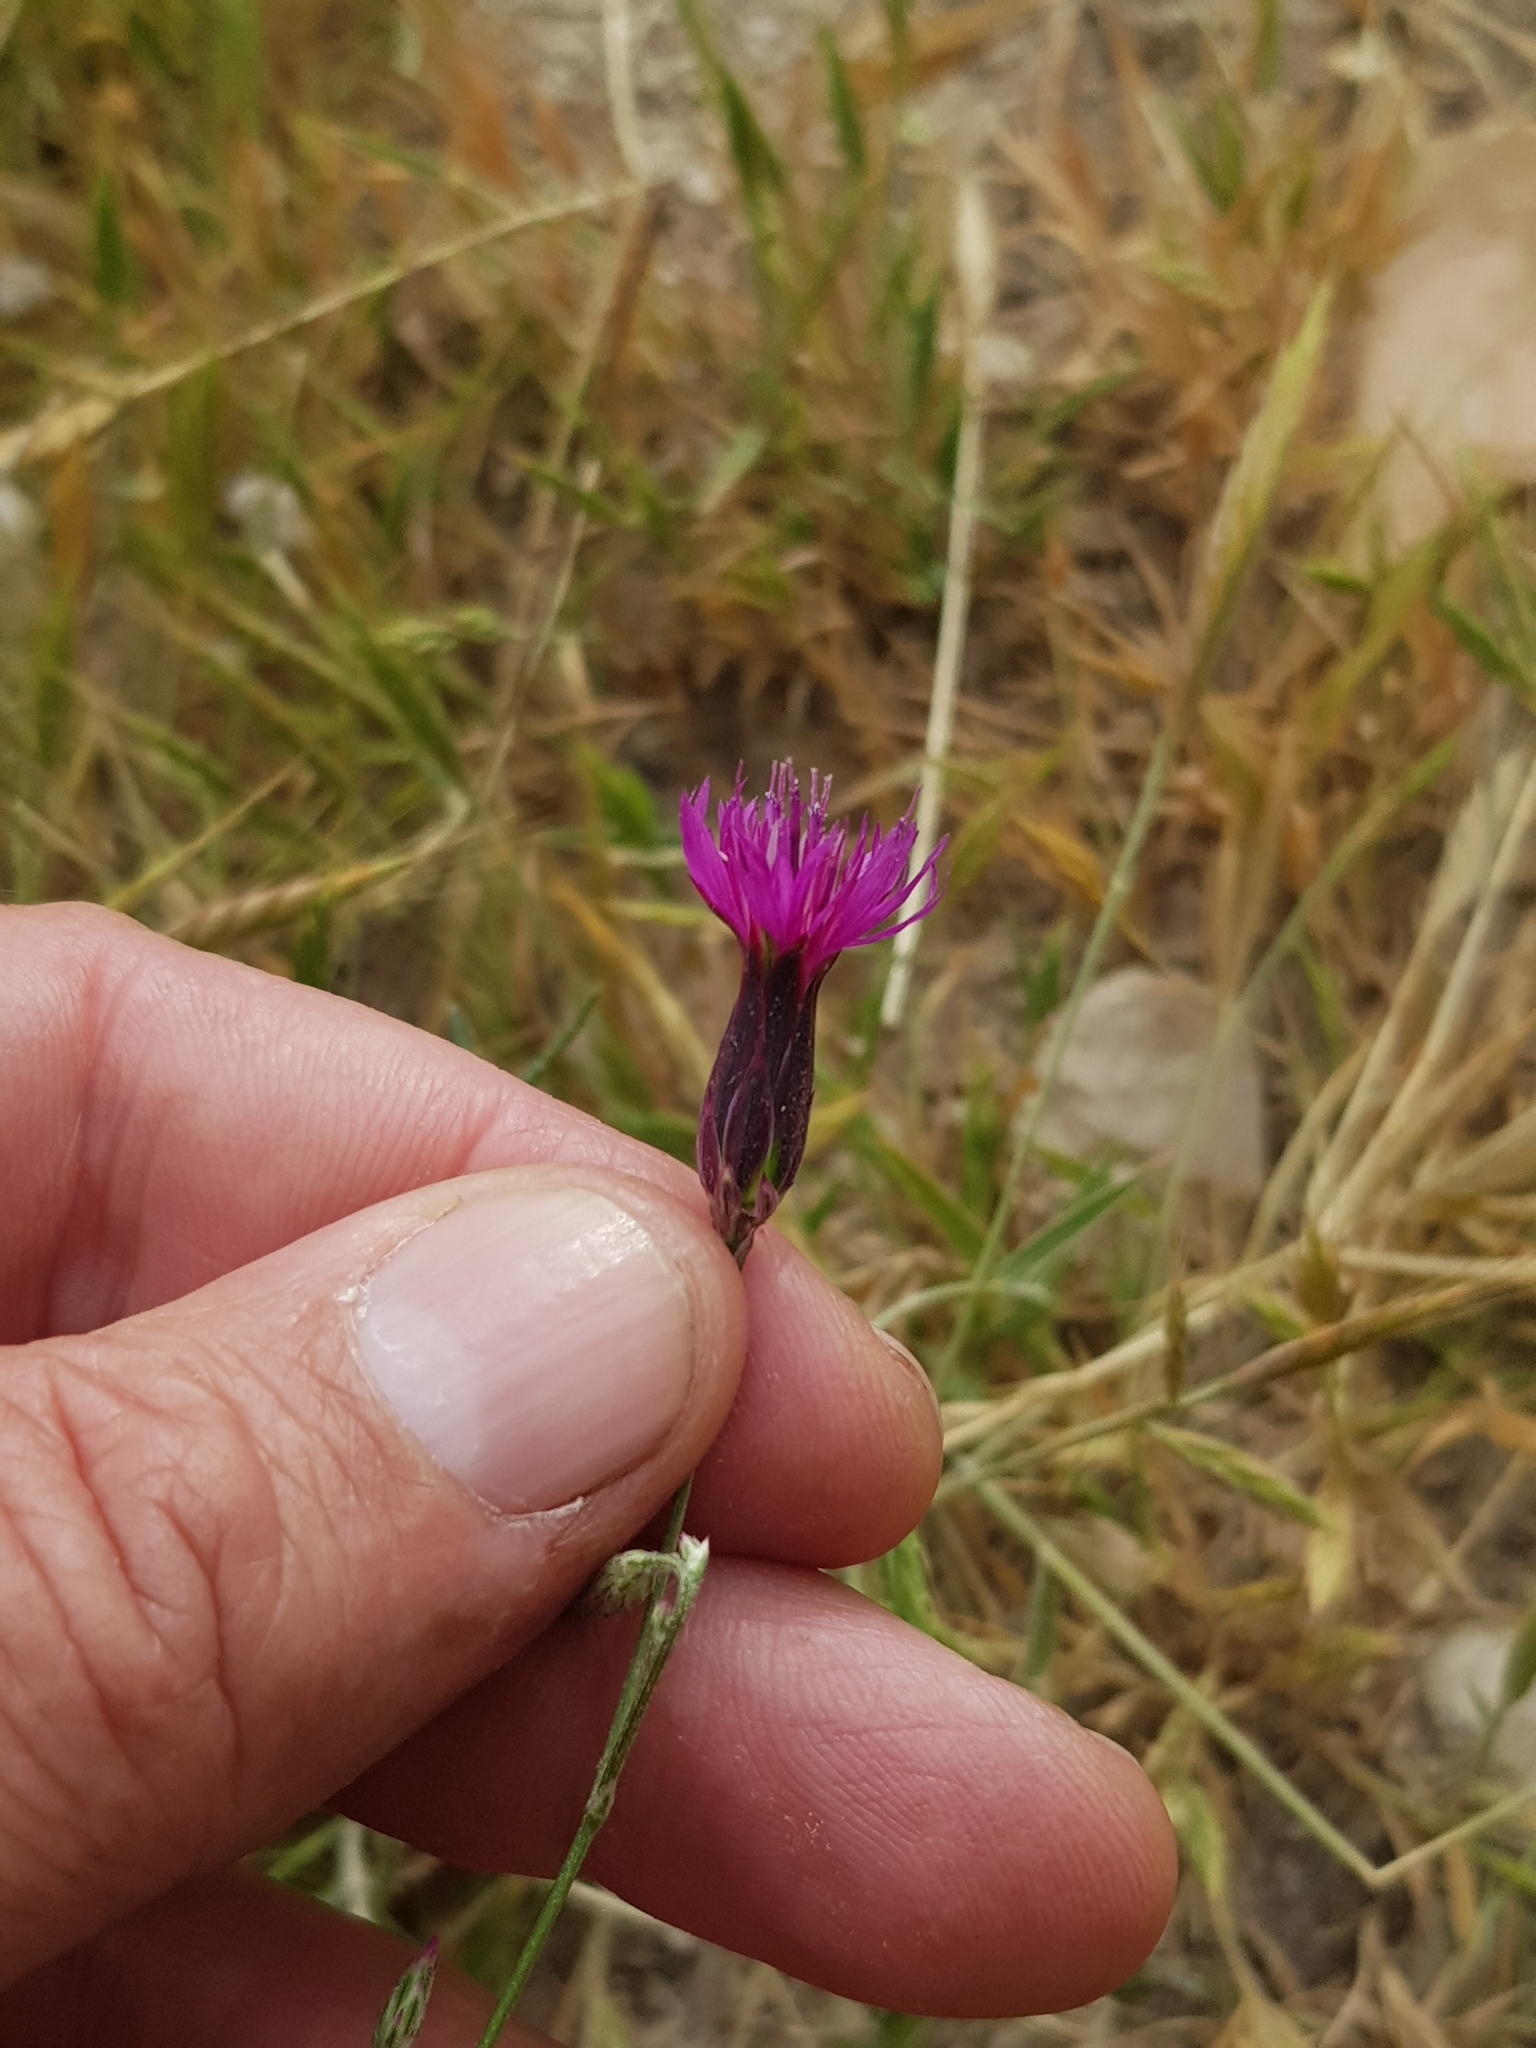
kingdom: Plantae
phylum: Tracheophyta
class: Magnoliopsida
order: Asterales
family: Asteraceae
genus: Crupina
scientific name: Crupina crupinastrum
